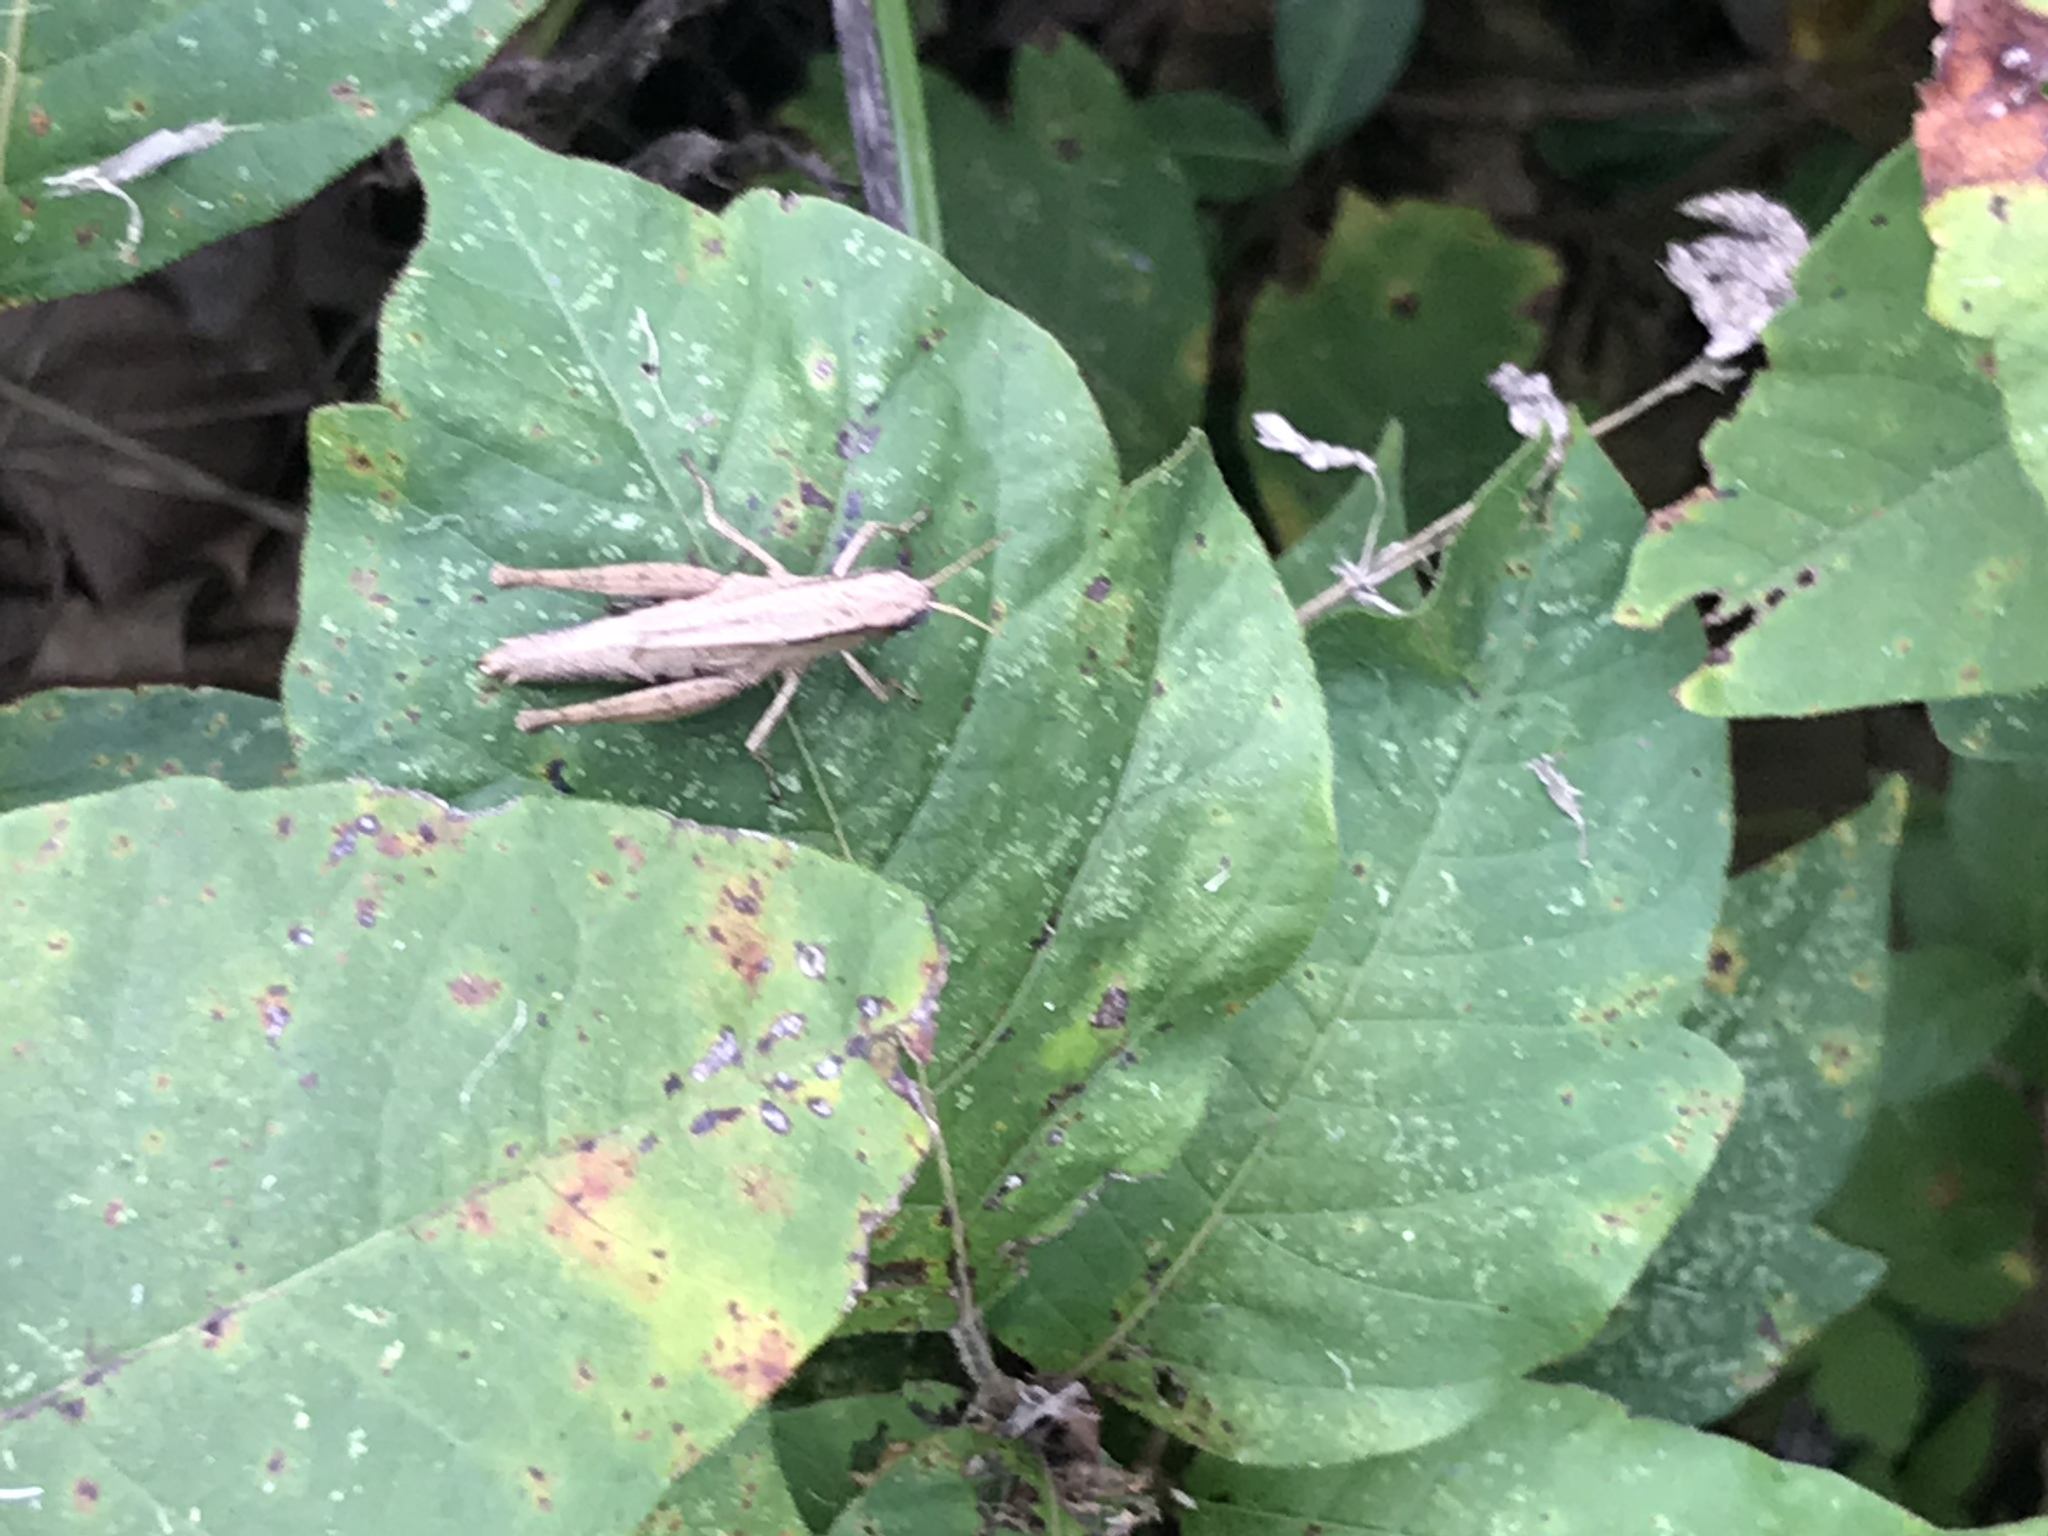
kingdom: Animalia
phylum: Arthropoda
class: Insecta
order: Orthoptera
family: Acrididae
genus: Dichromorpha
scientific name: Dichromorpha viridis
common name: Short-winged green grasshopper
